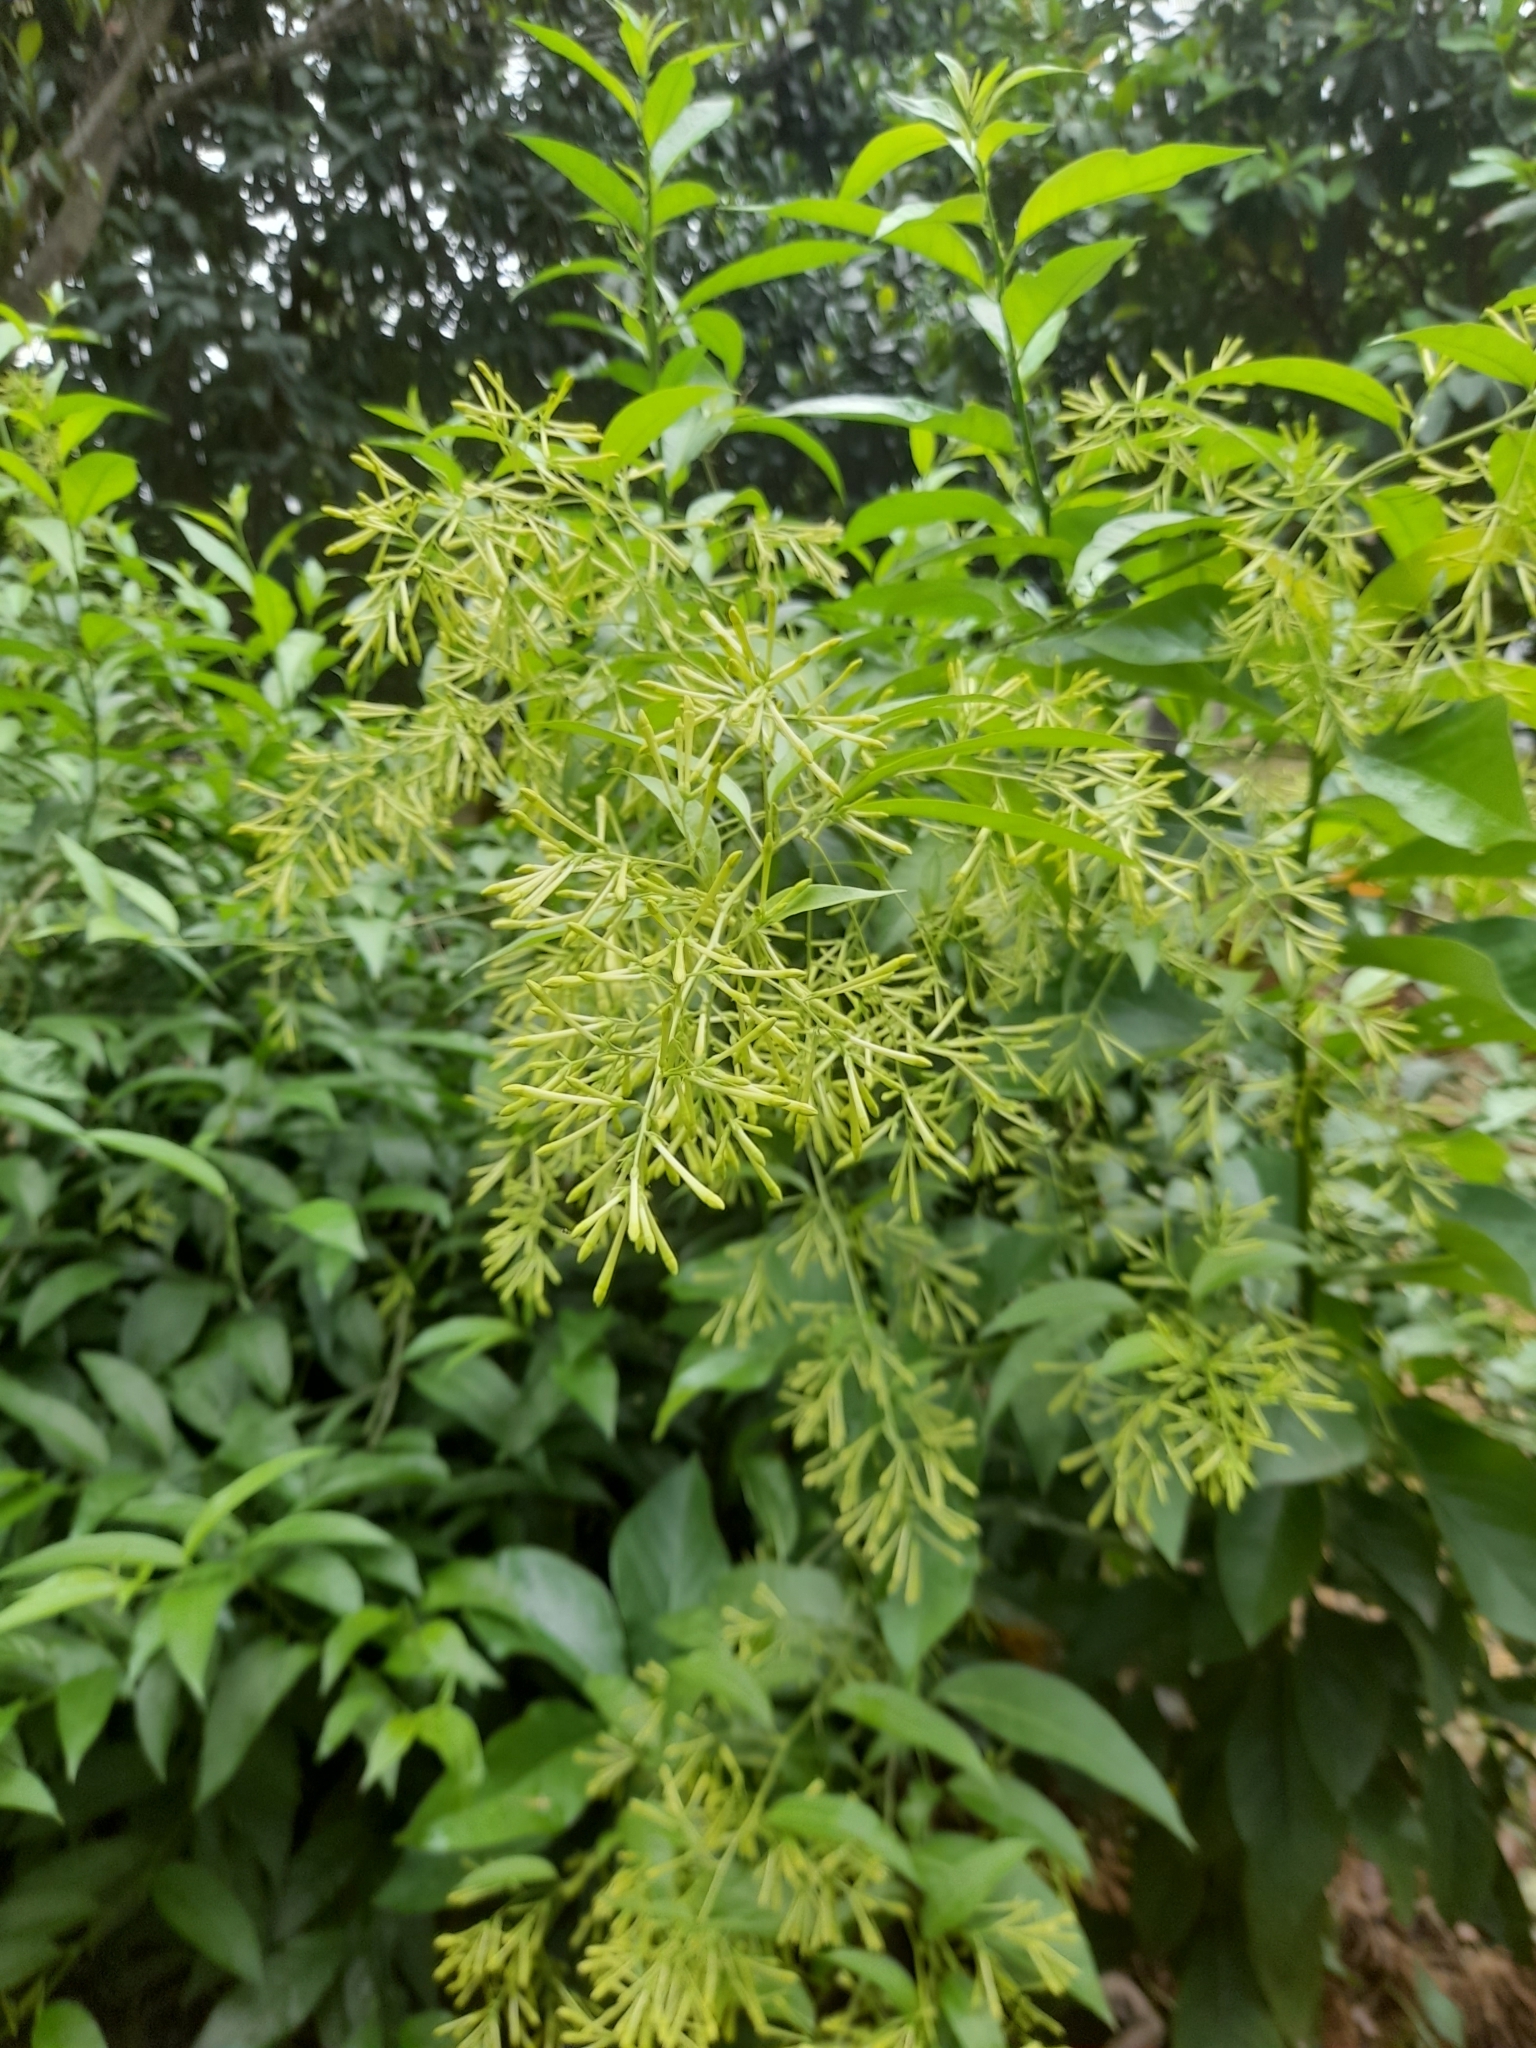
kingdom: Plantae
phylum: Tracheophyta
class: Magnoliopsida
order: Solanales
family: Solanaceae
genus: Cestrum
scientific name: Cestrum nocturnum
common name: Night jessamine
